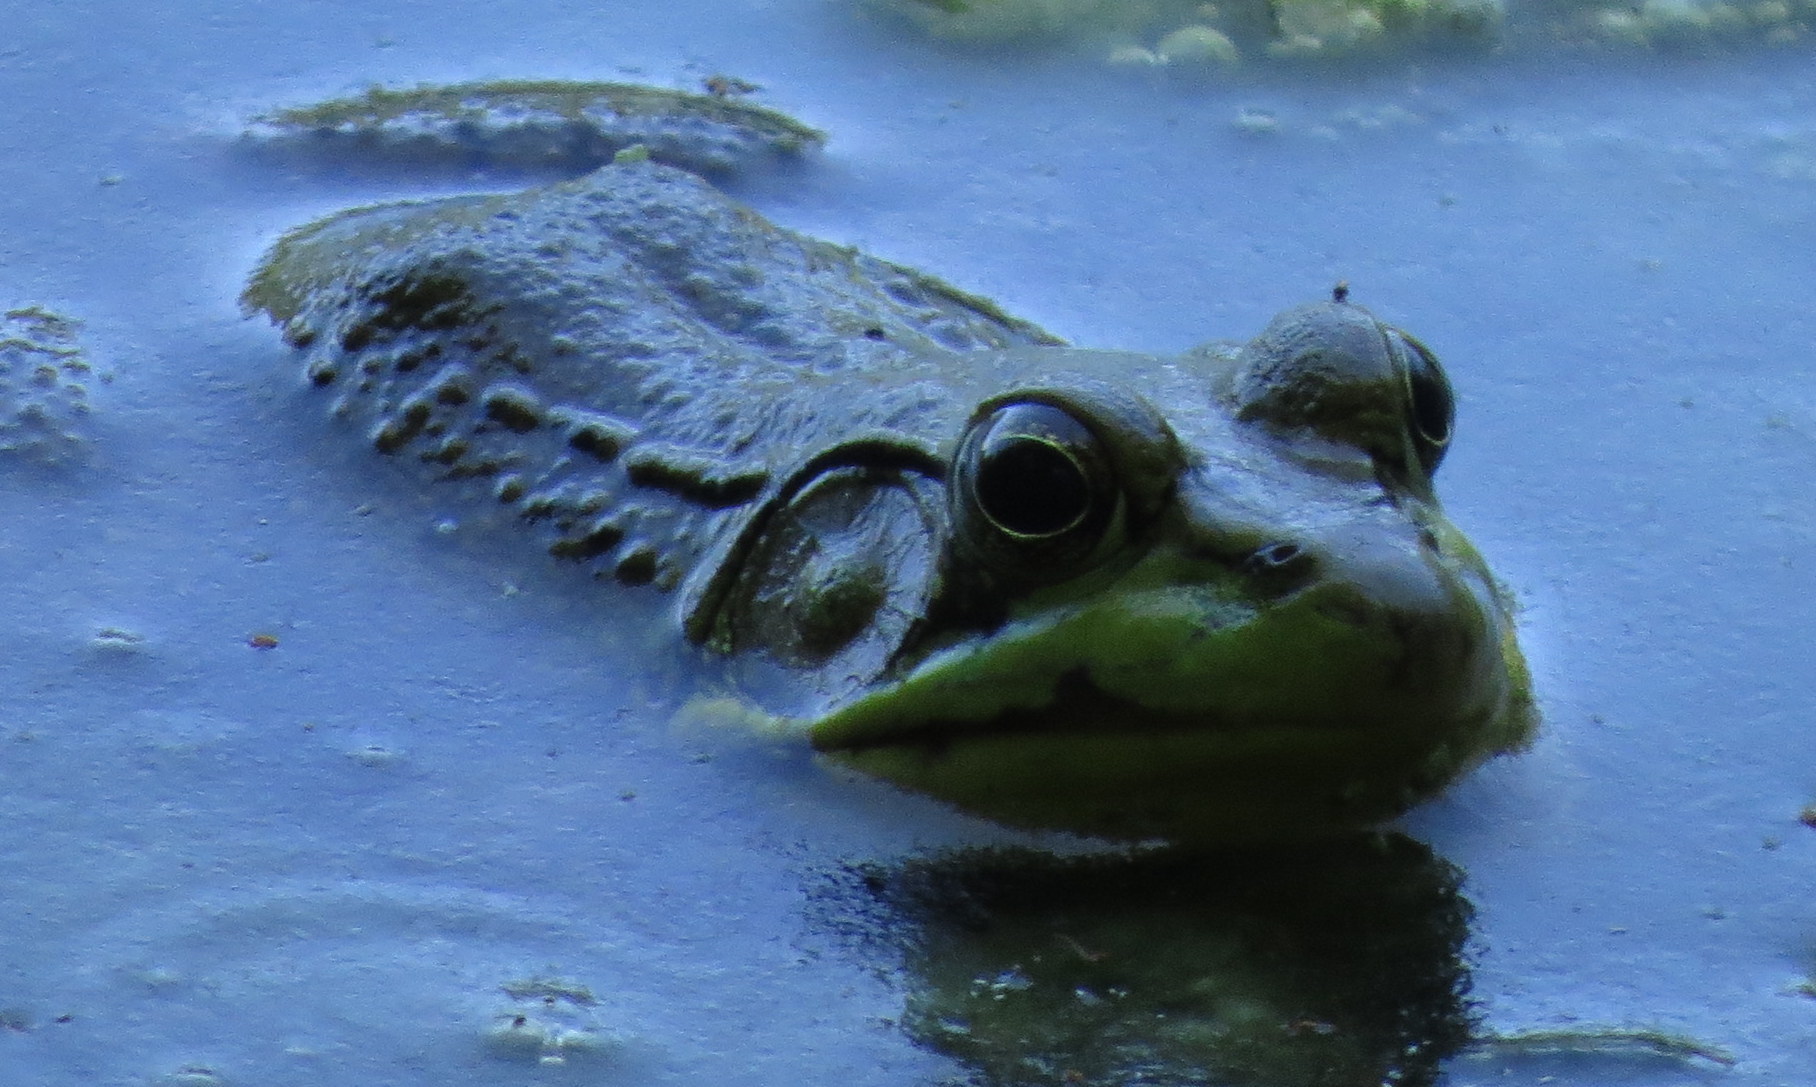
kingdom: Animalia
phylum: Chordata
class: Amphibia
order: Anura
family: Ranidae
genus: Lithobates
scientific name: Lithobates clamitans
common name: Green frog
